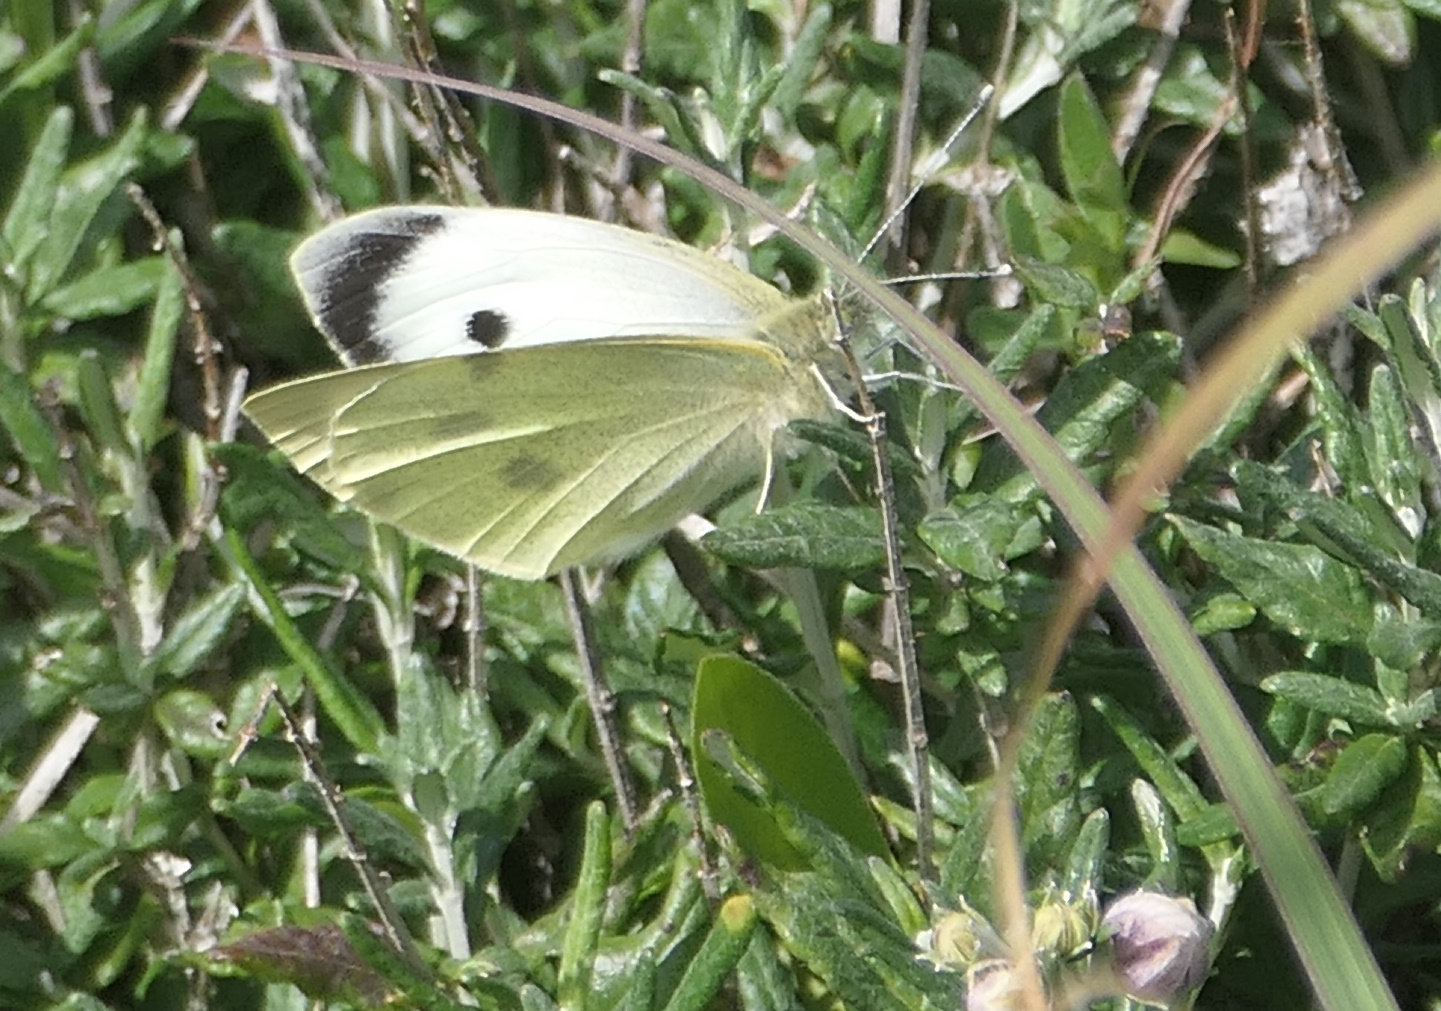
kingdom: Animalia
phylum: Arthropoda
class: Insecta
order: Lepidoptera
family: Pieridae
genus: Pieris
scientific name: Pieris brassicae
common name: Large white
